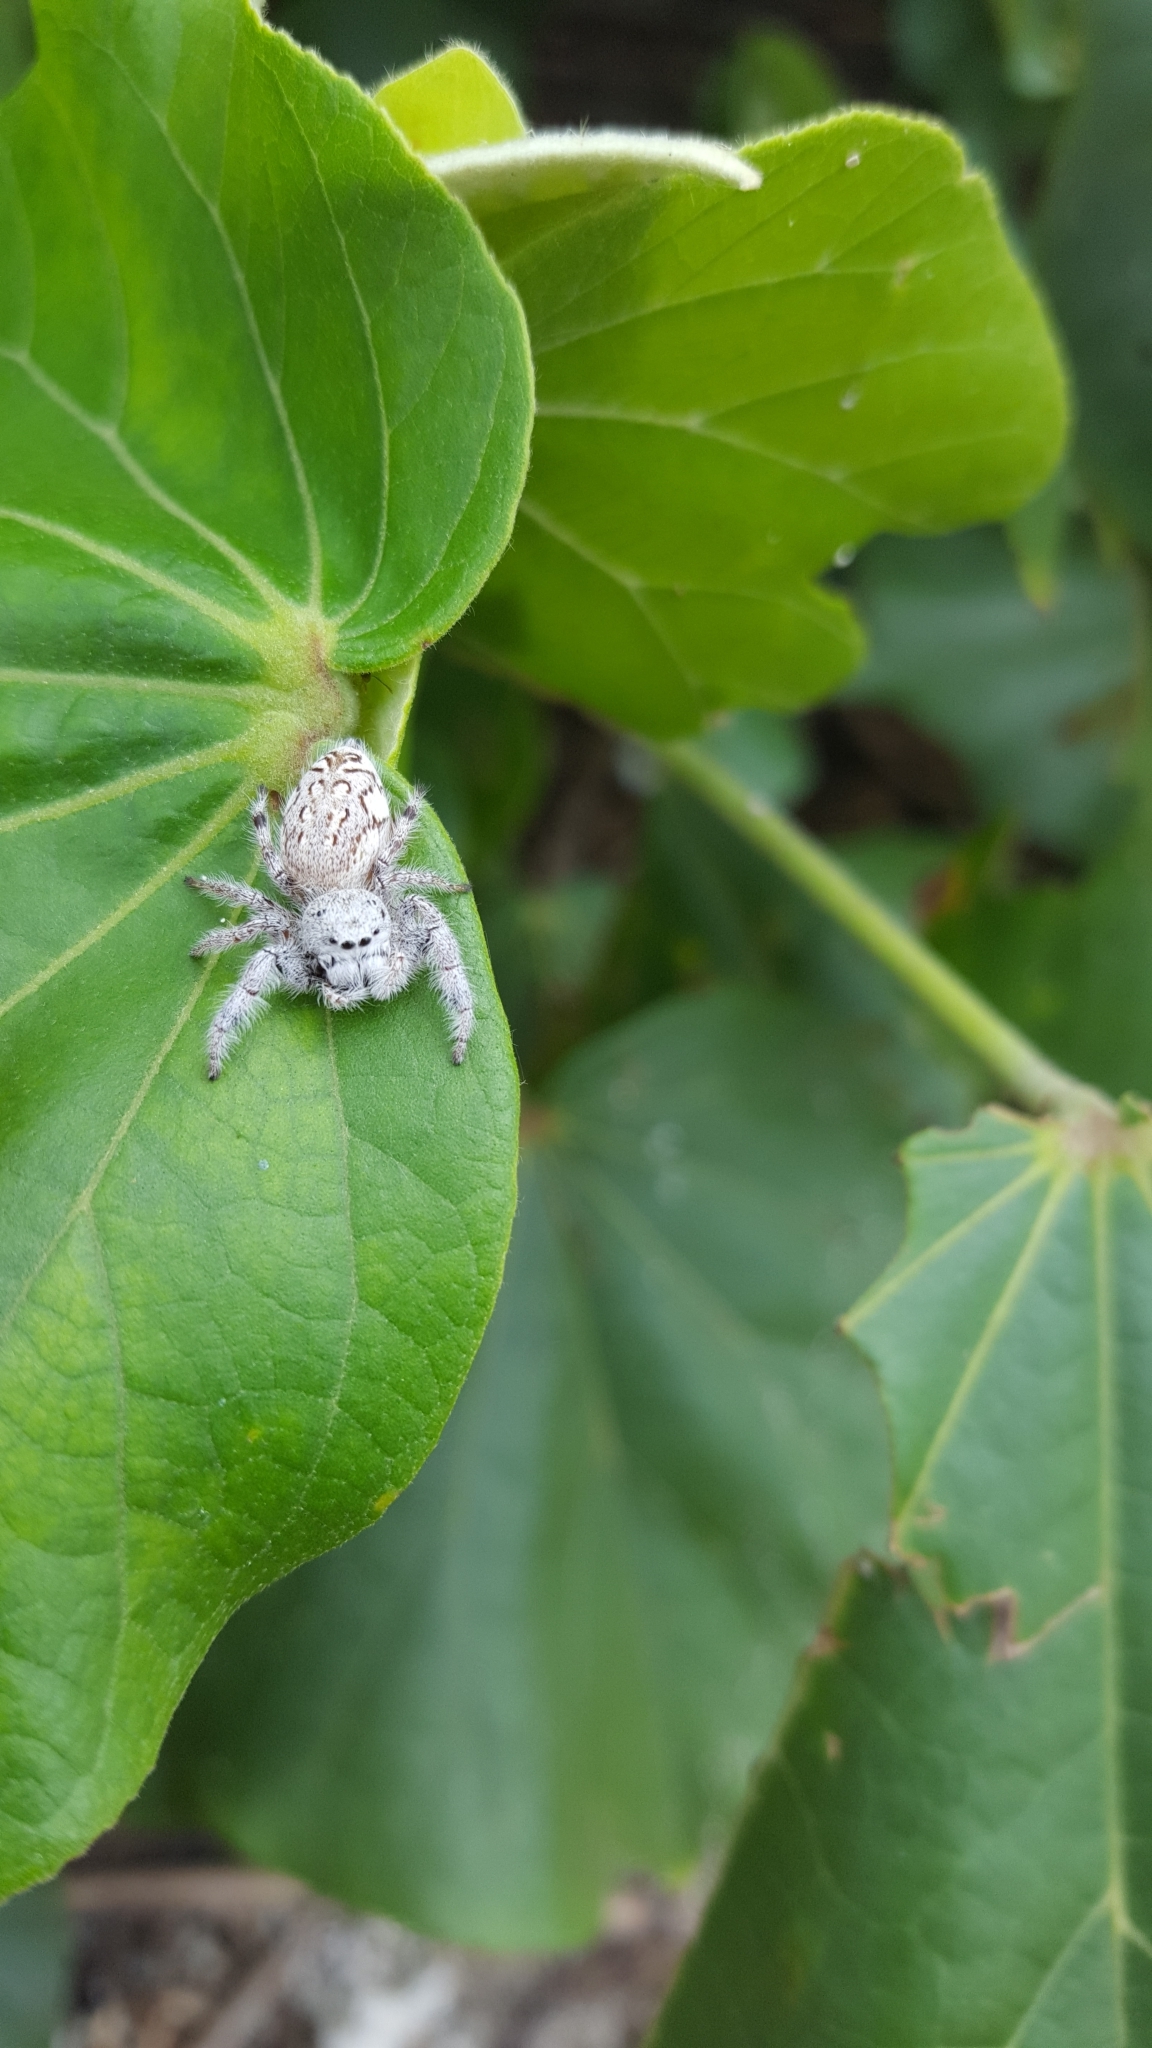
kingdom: Animalia
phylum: Arthropoda
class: Arachnida
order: Araneae
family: Salticidae
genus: Paraphidippus
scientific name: Paraphidippus fartilis
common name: Jumping spiders
